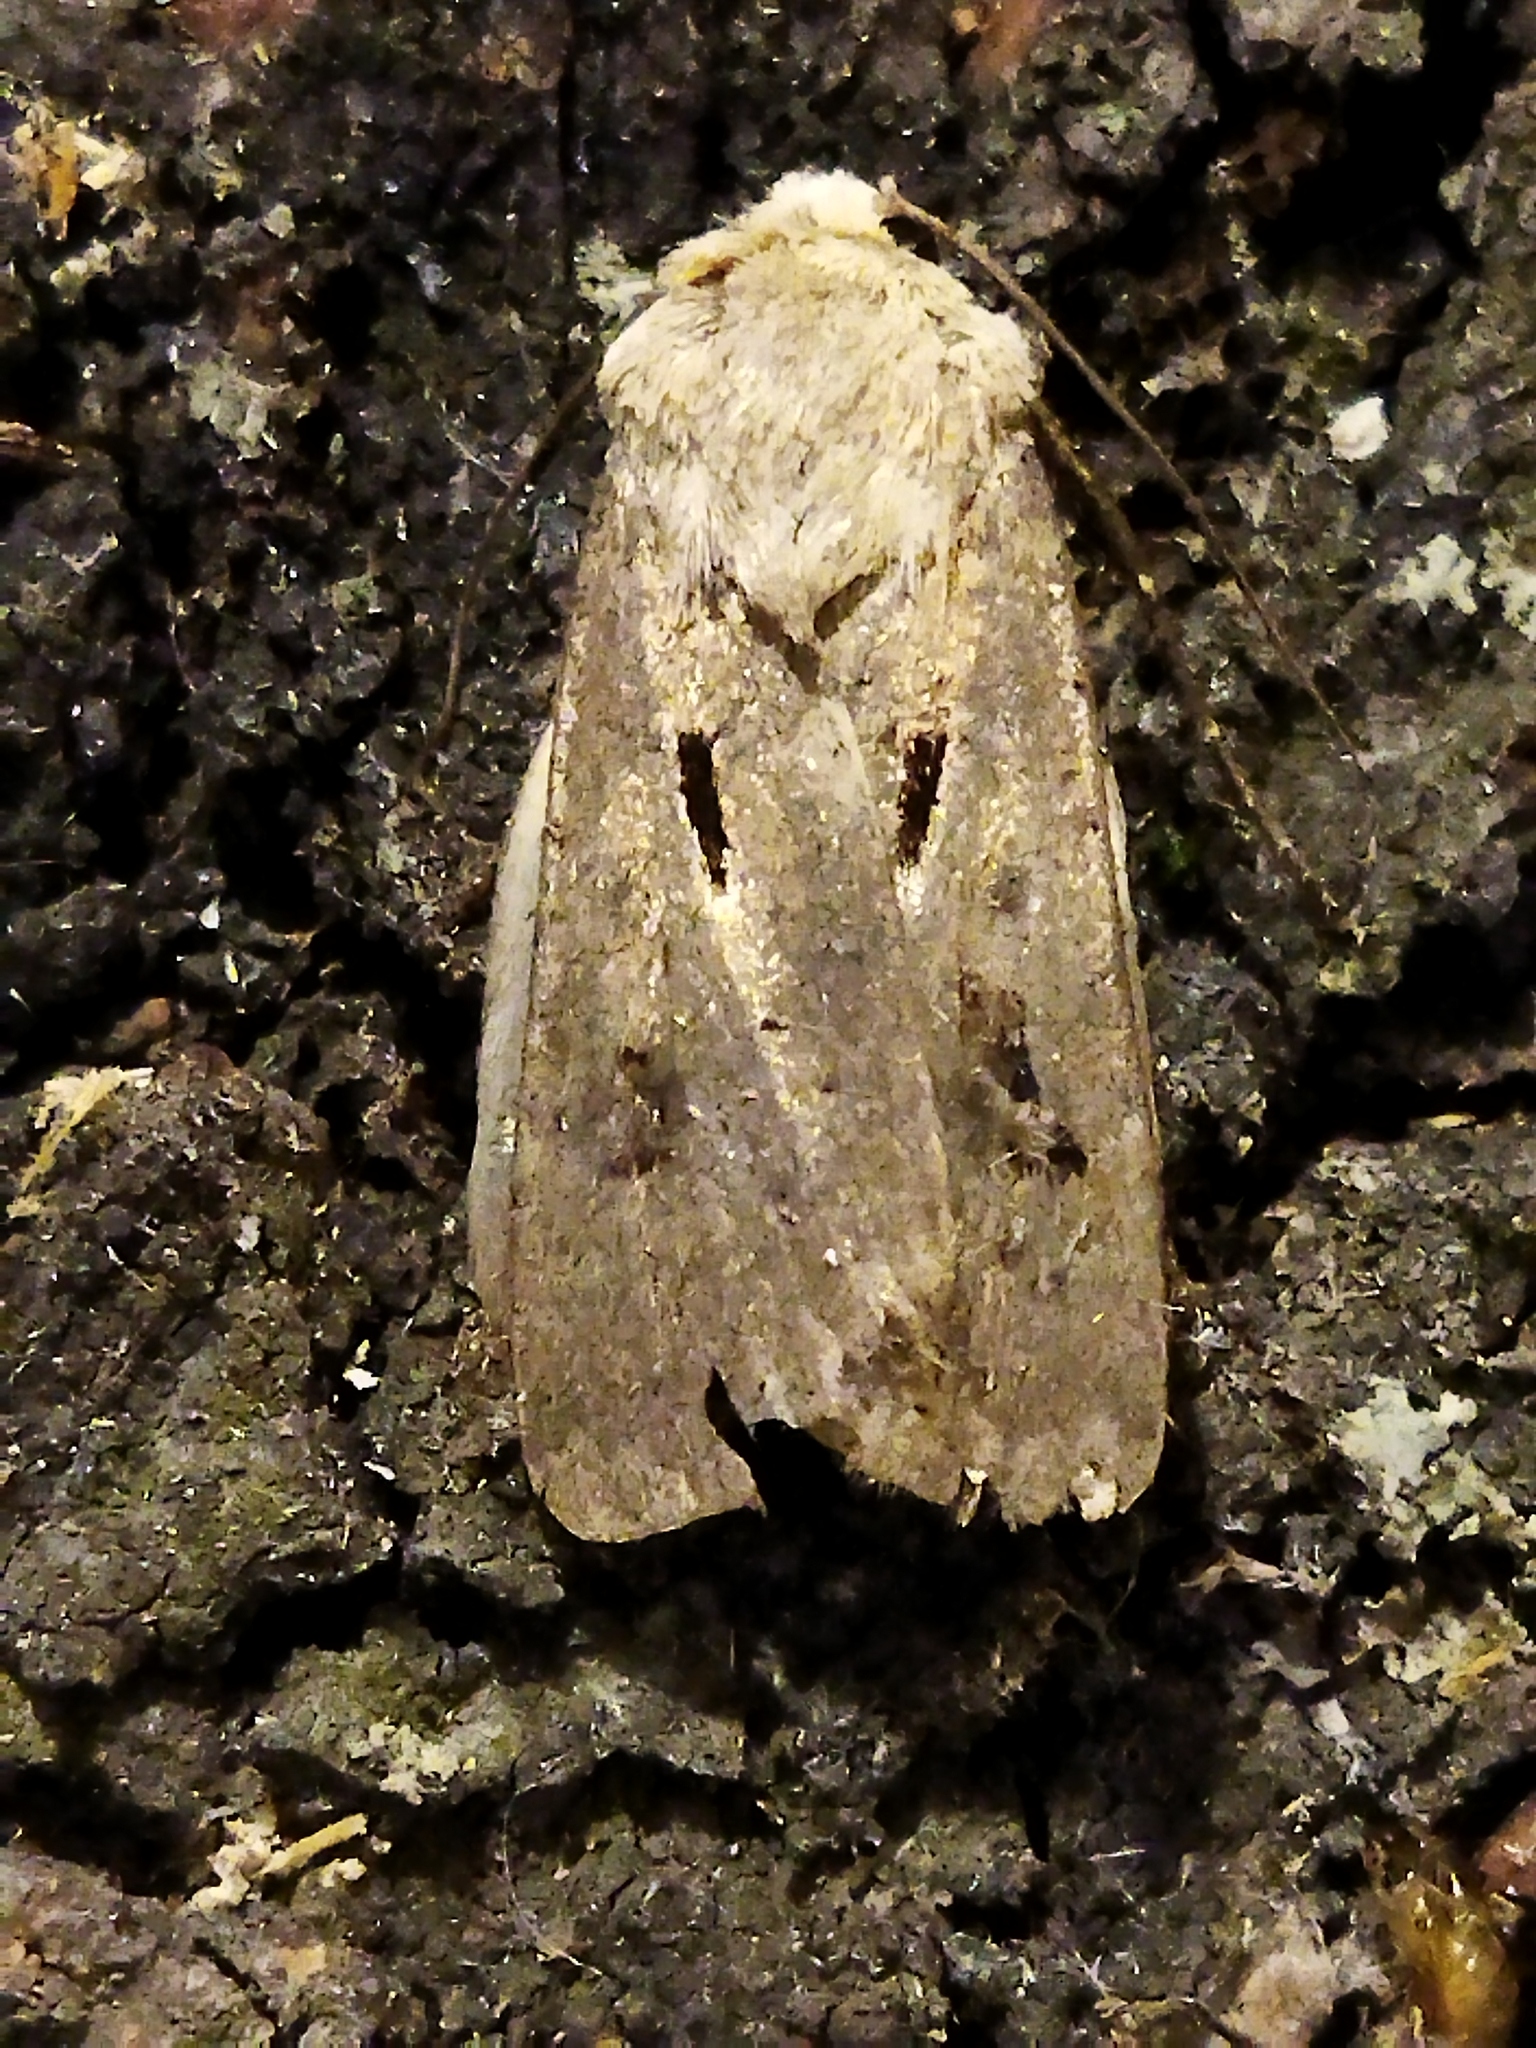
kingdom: Animalia
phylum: Arthropoda
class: Insecta
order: Lepidoptera
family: Noctuidae
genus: Agrotis
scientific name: Agrotis exclamationis
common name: Heart and dart
